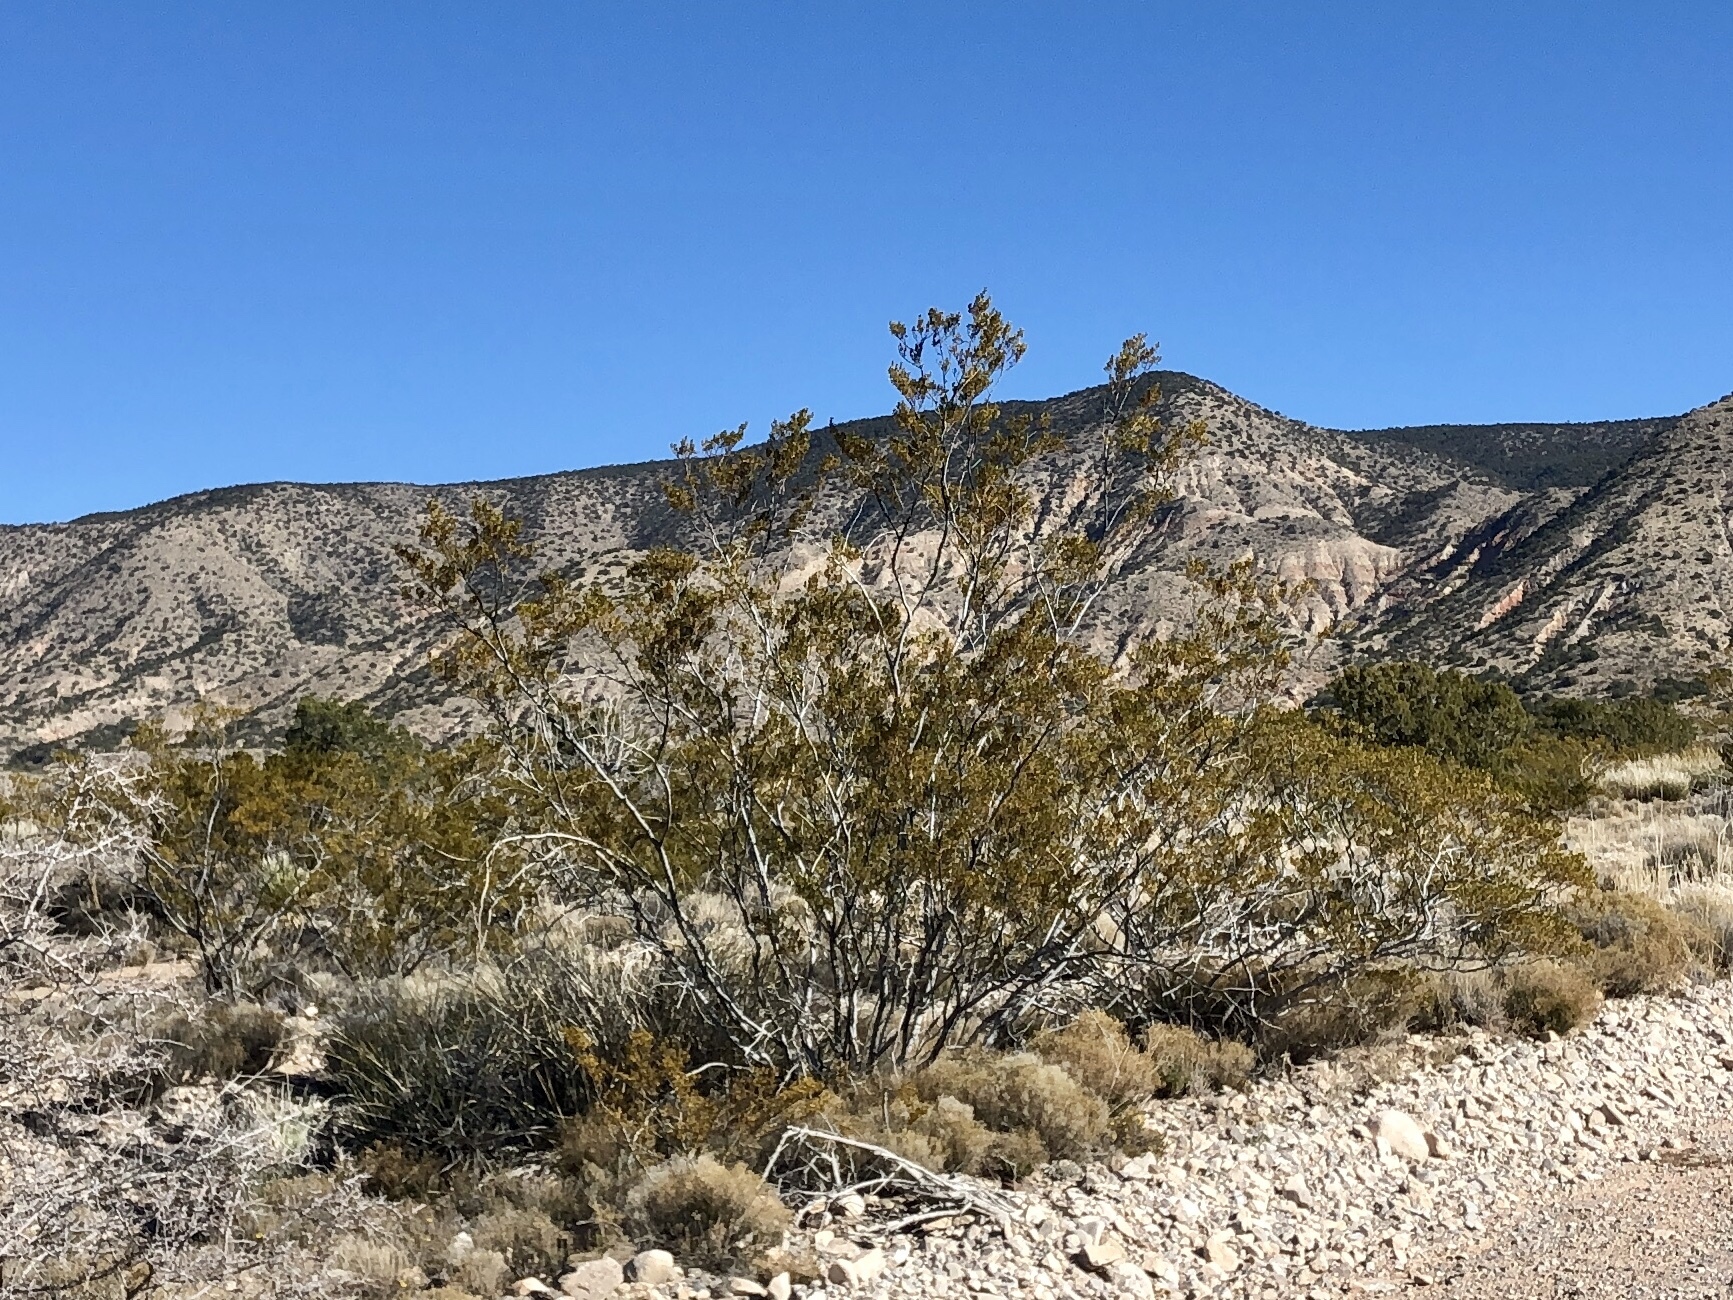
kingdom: Plantae
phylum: Tracheophyta
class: Magnoliopsida
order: Zygophyllales
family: Zygophyllaceae
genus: Larrea
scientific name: Larrea tridentata
